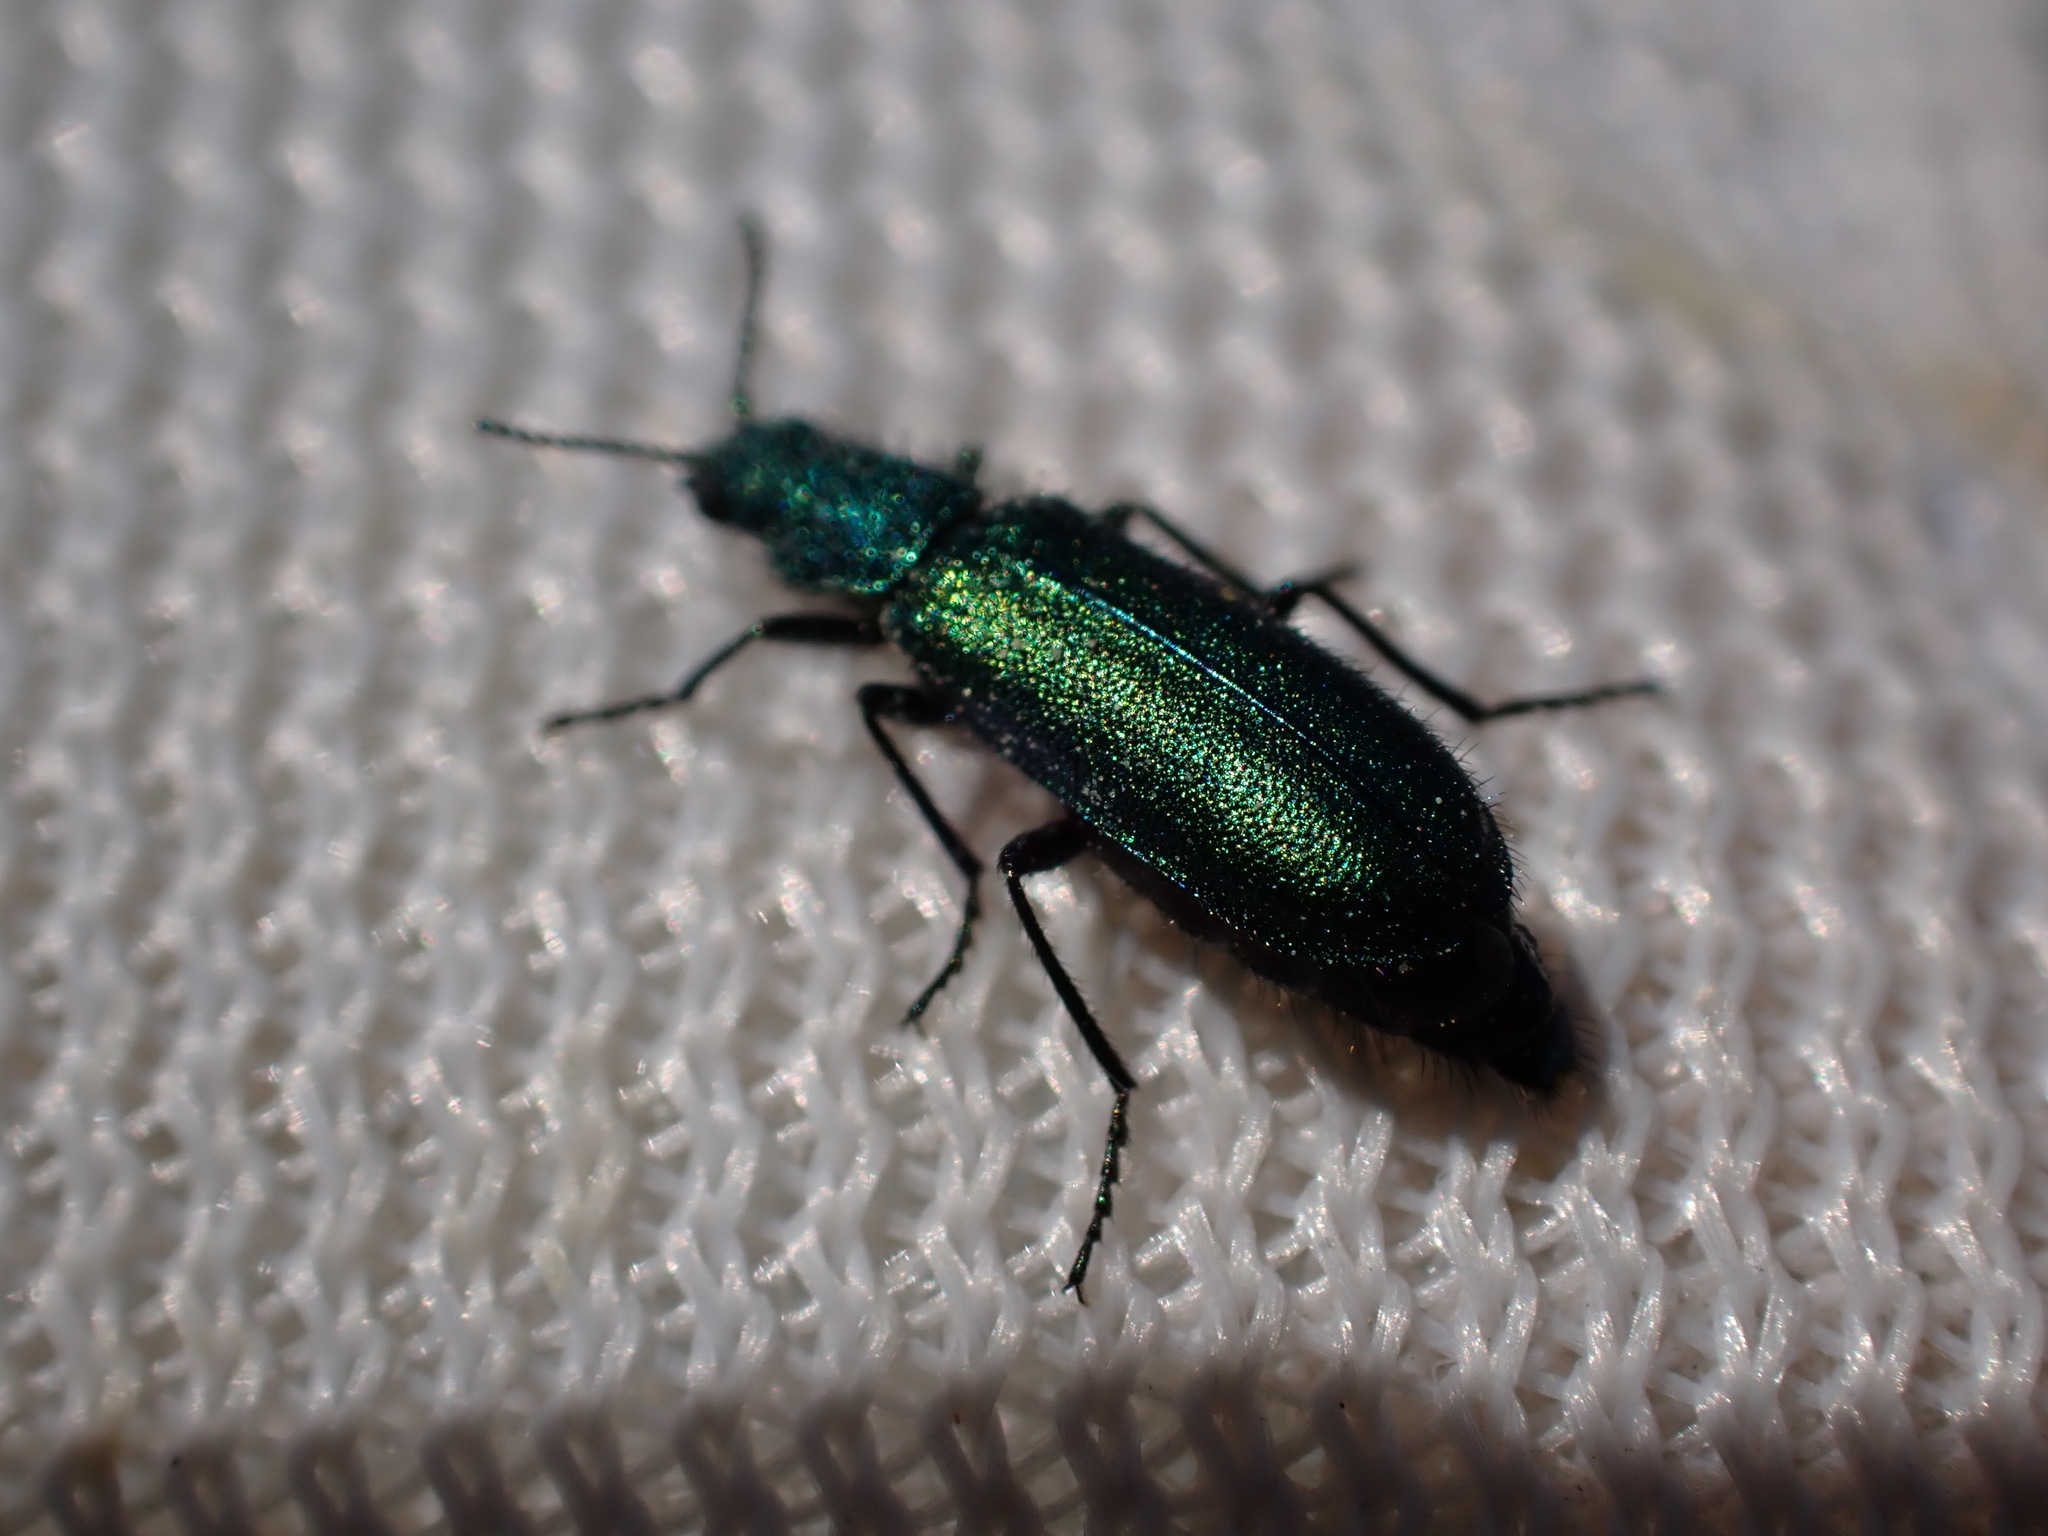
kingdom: Animalia
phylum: Arthropoda
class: Insecta
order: Coleoptera
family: Dasytidae
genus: Psilothrix
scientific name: Psilothrix viridicoerulea
